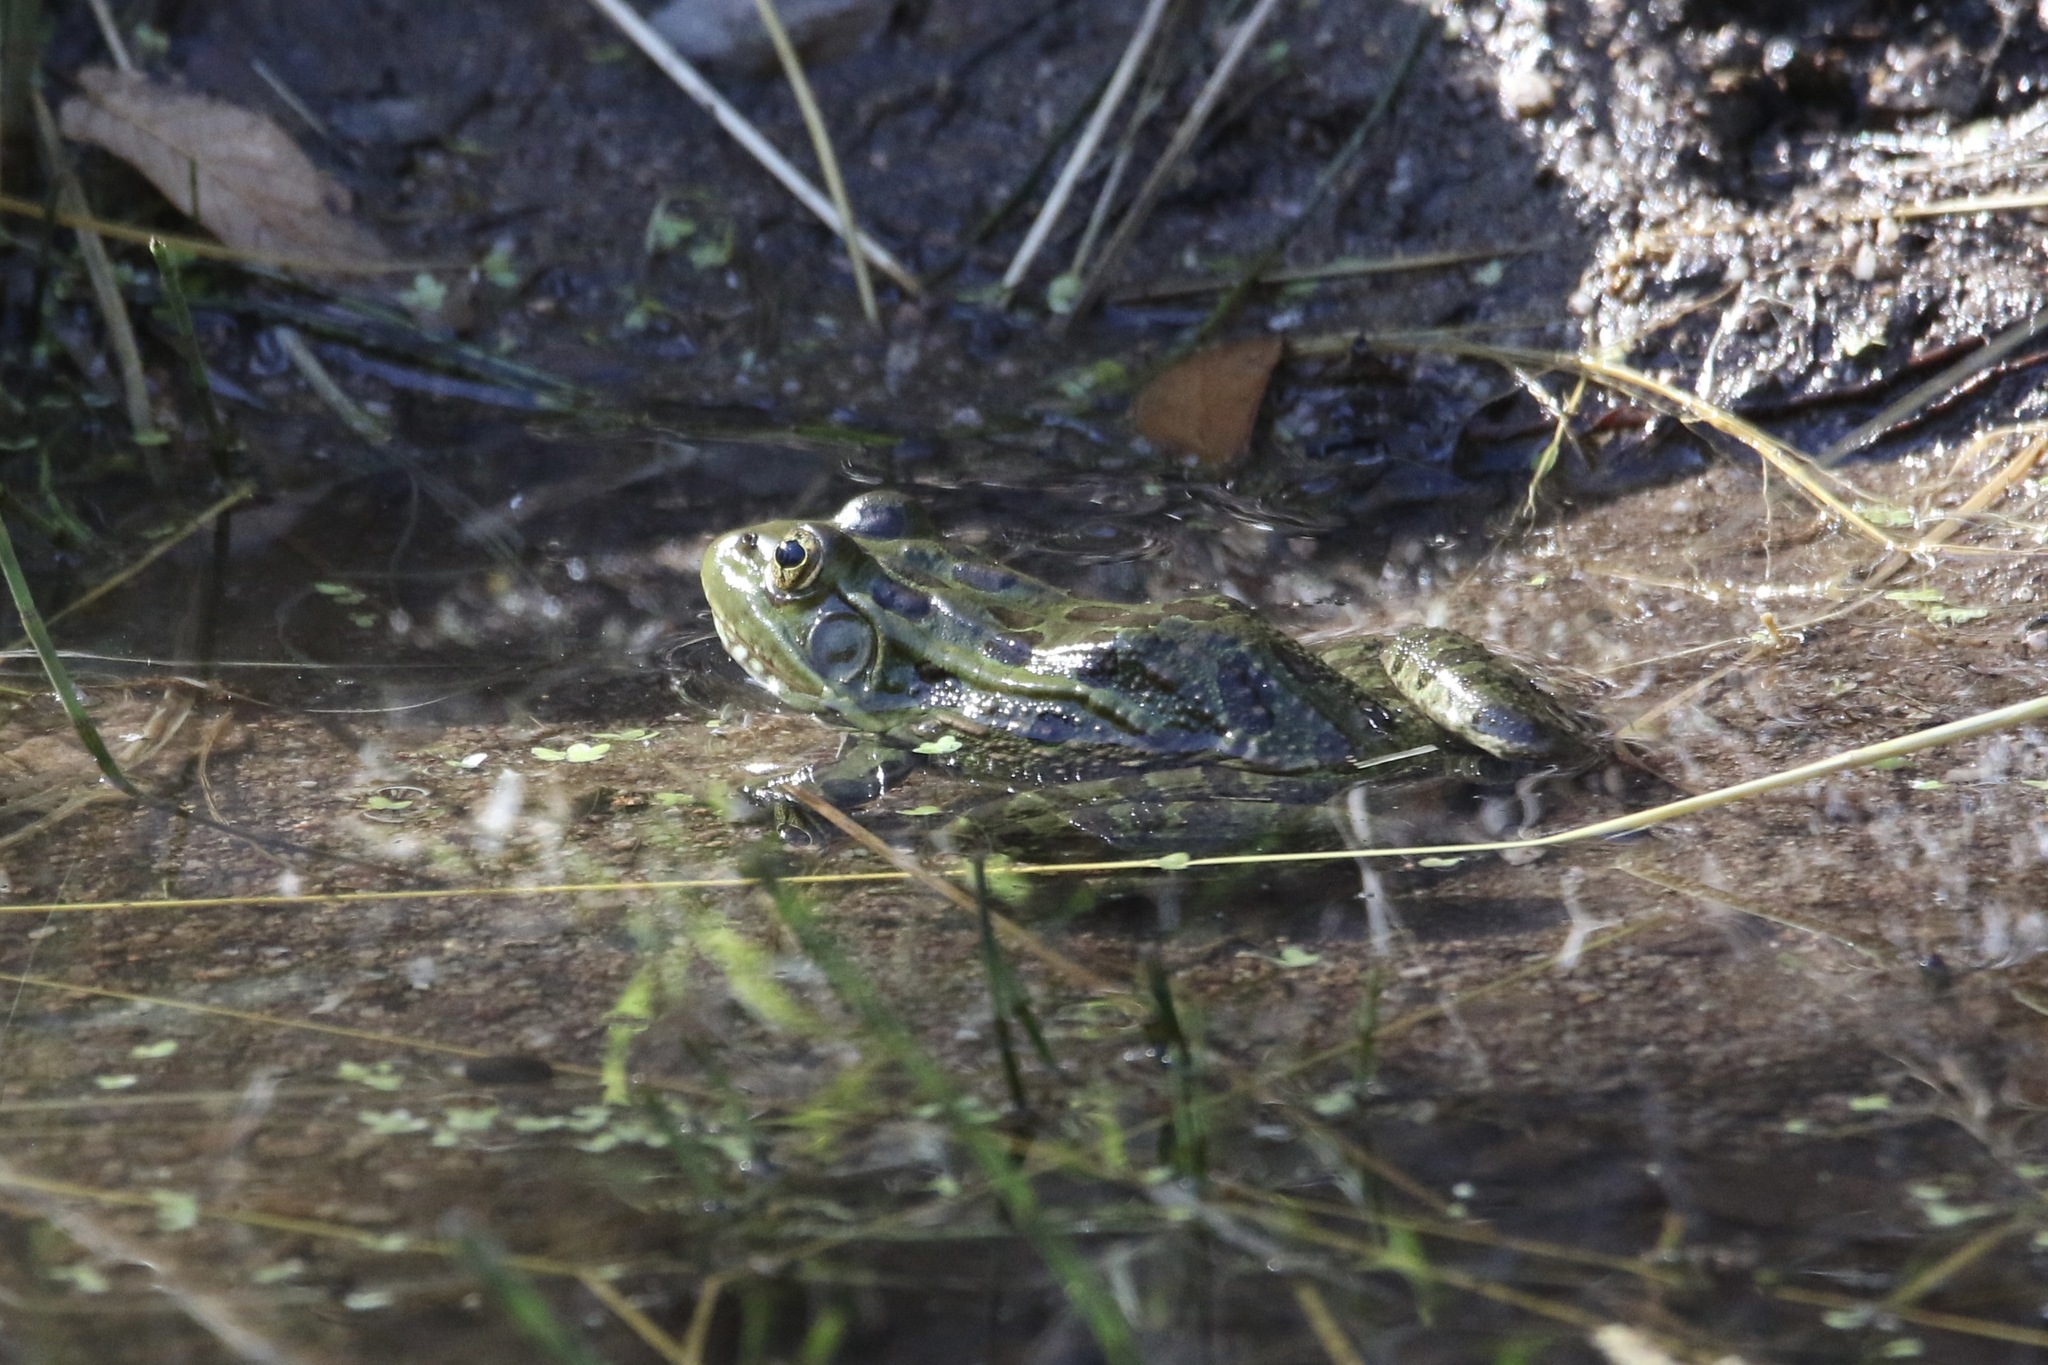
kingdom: Animalia
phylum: Chordata
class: Amphibia
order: Anura
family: Ranidae
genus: Lithobates
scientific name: Lithobates chiricahuensis
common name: Chiricahua leopard frog
